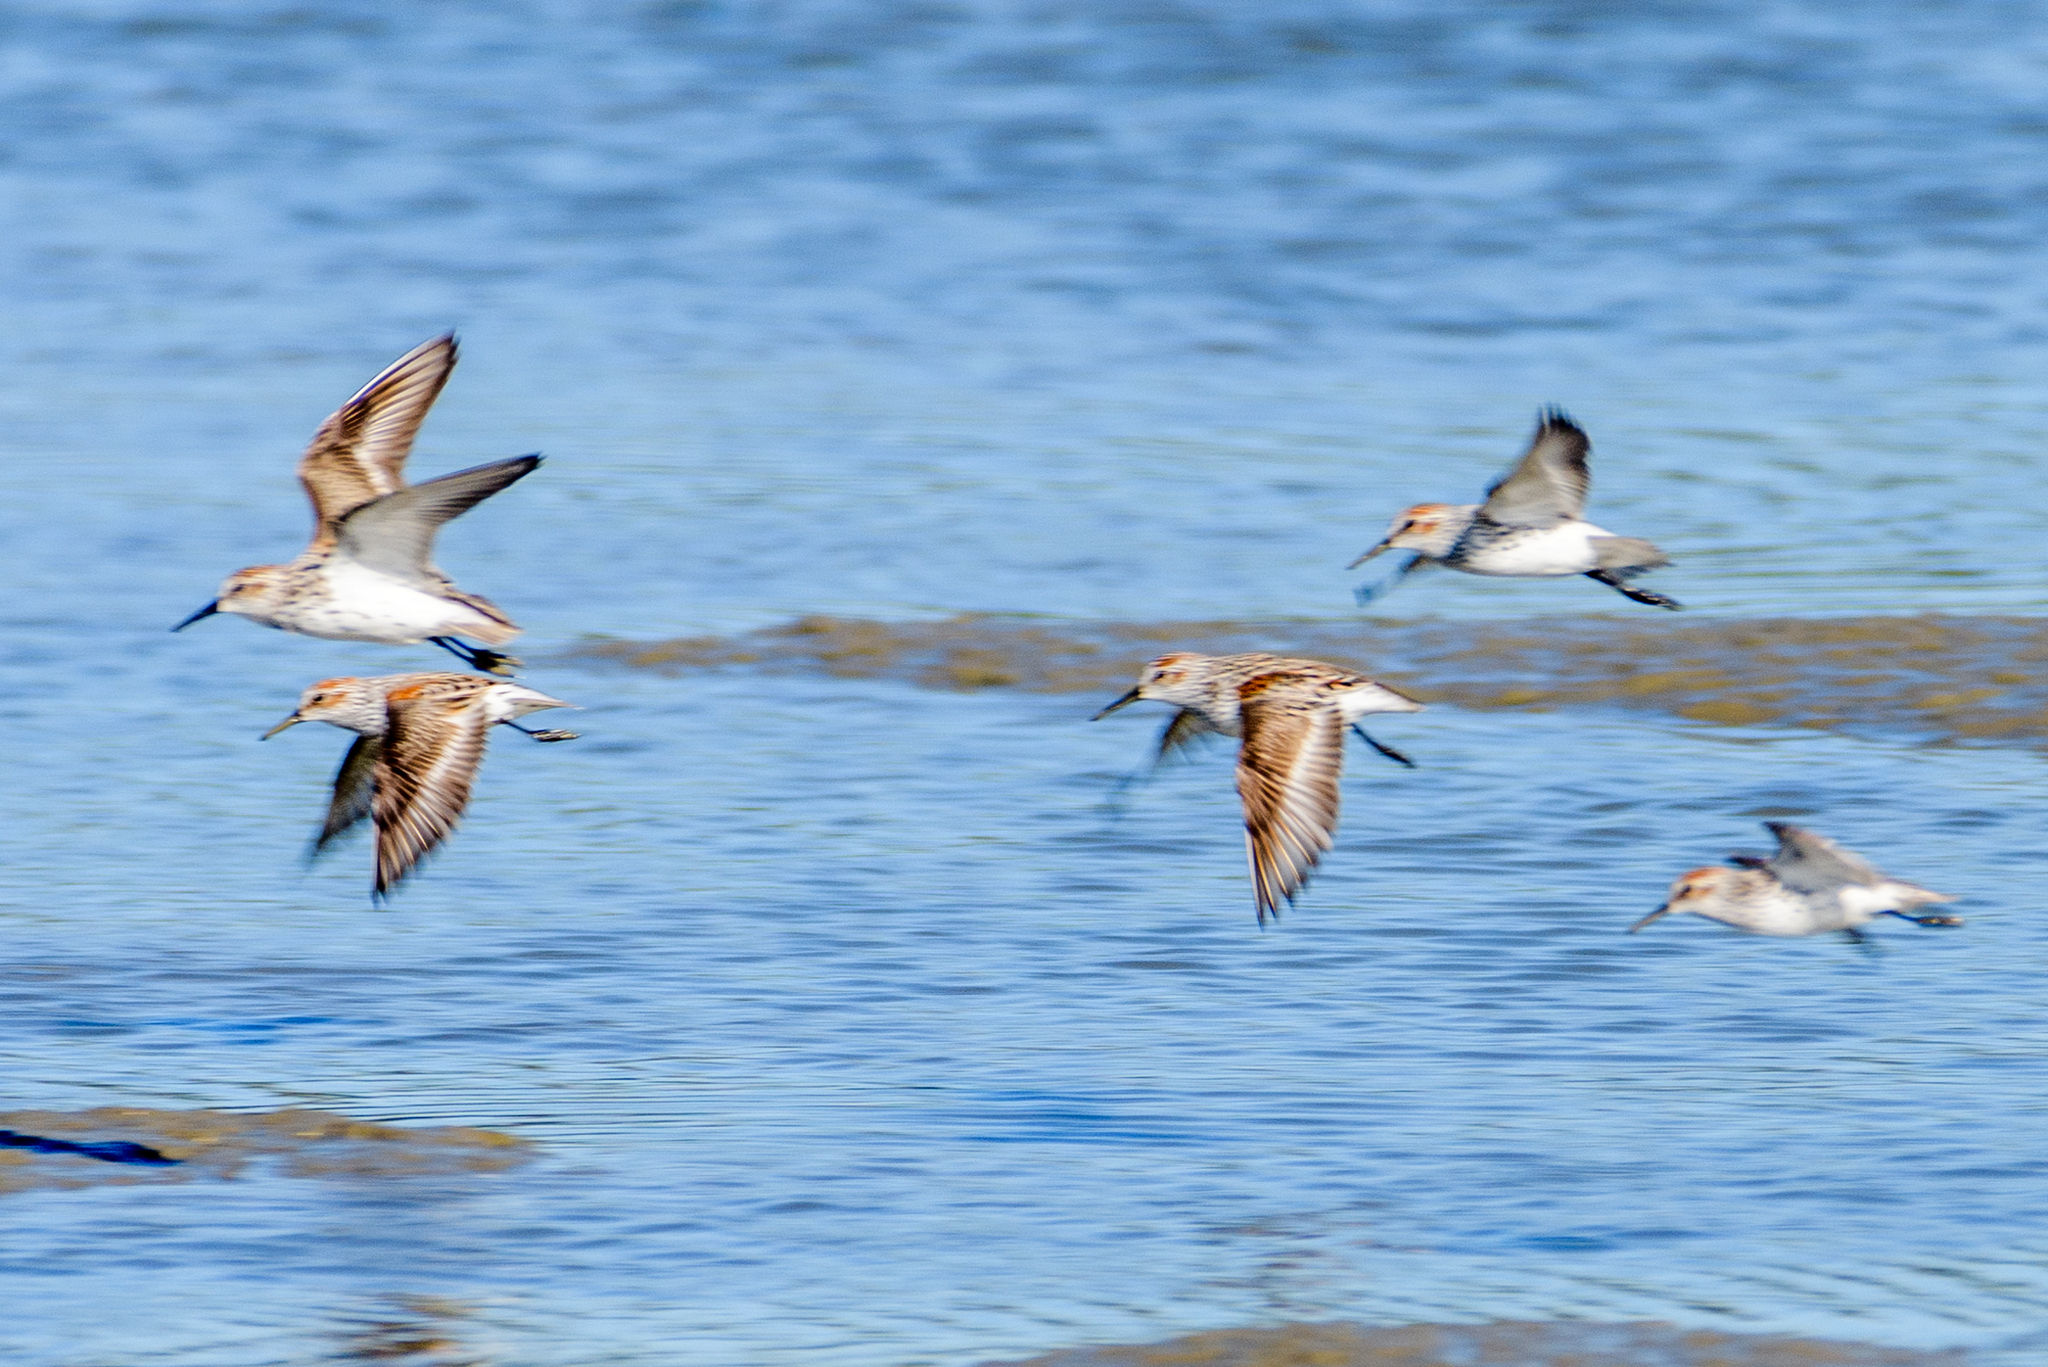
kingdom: Animalia
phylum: Chordata
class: Aves
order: Charadriiformes
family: Scolopacidae
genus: Calidris
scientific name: Calidris mauri
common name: Western sandpiper
